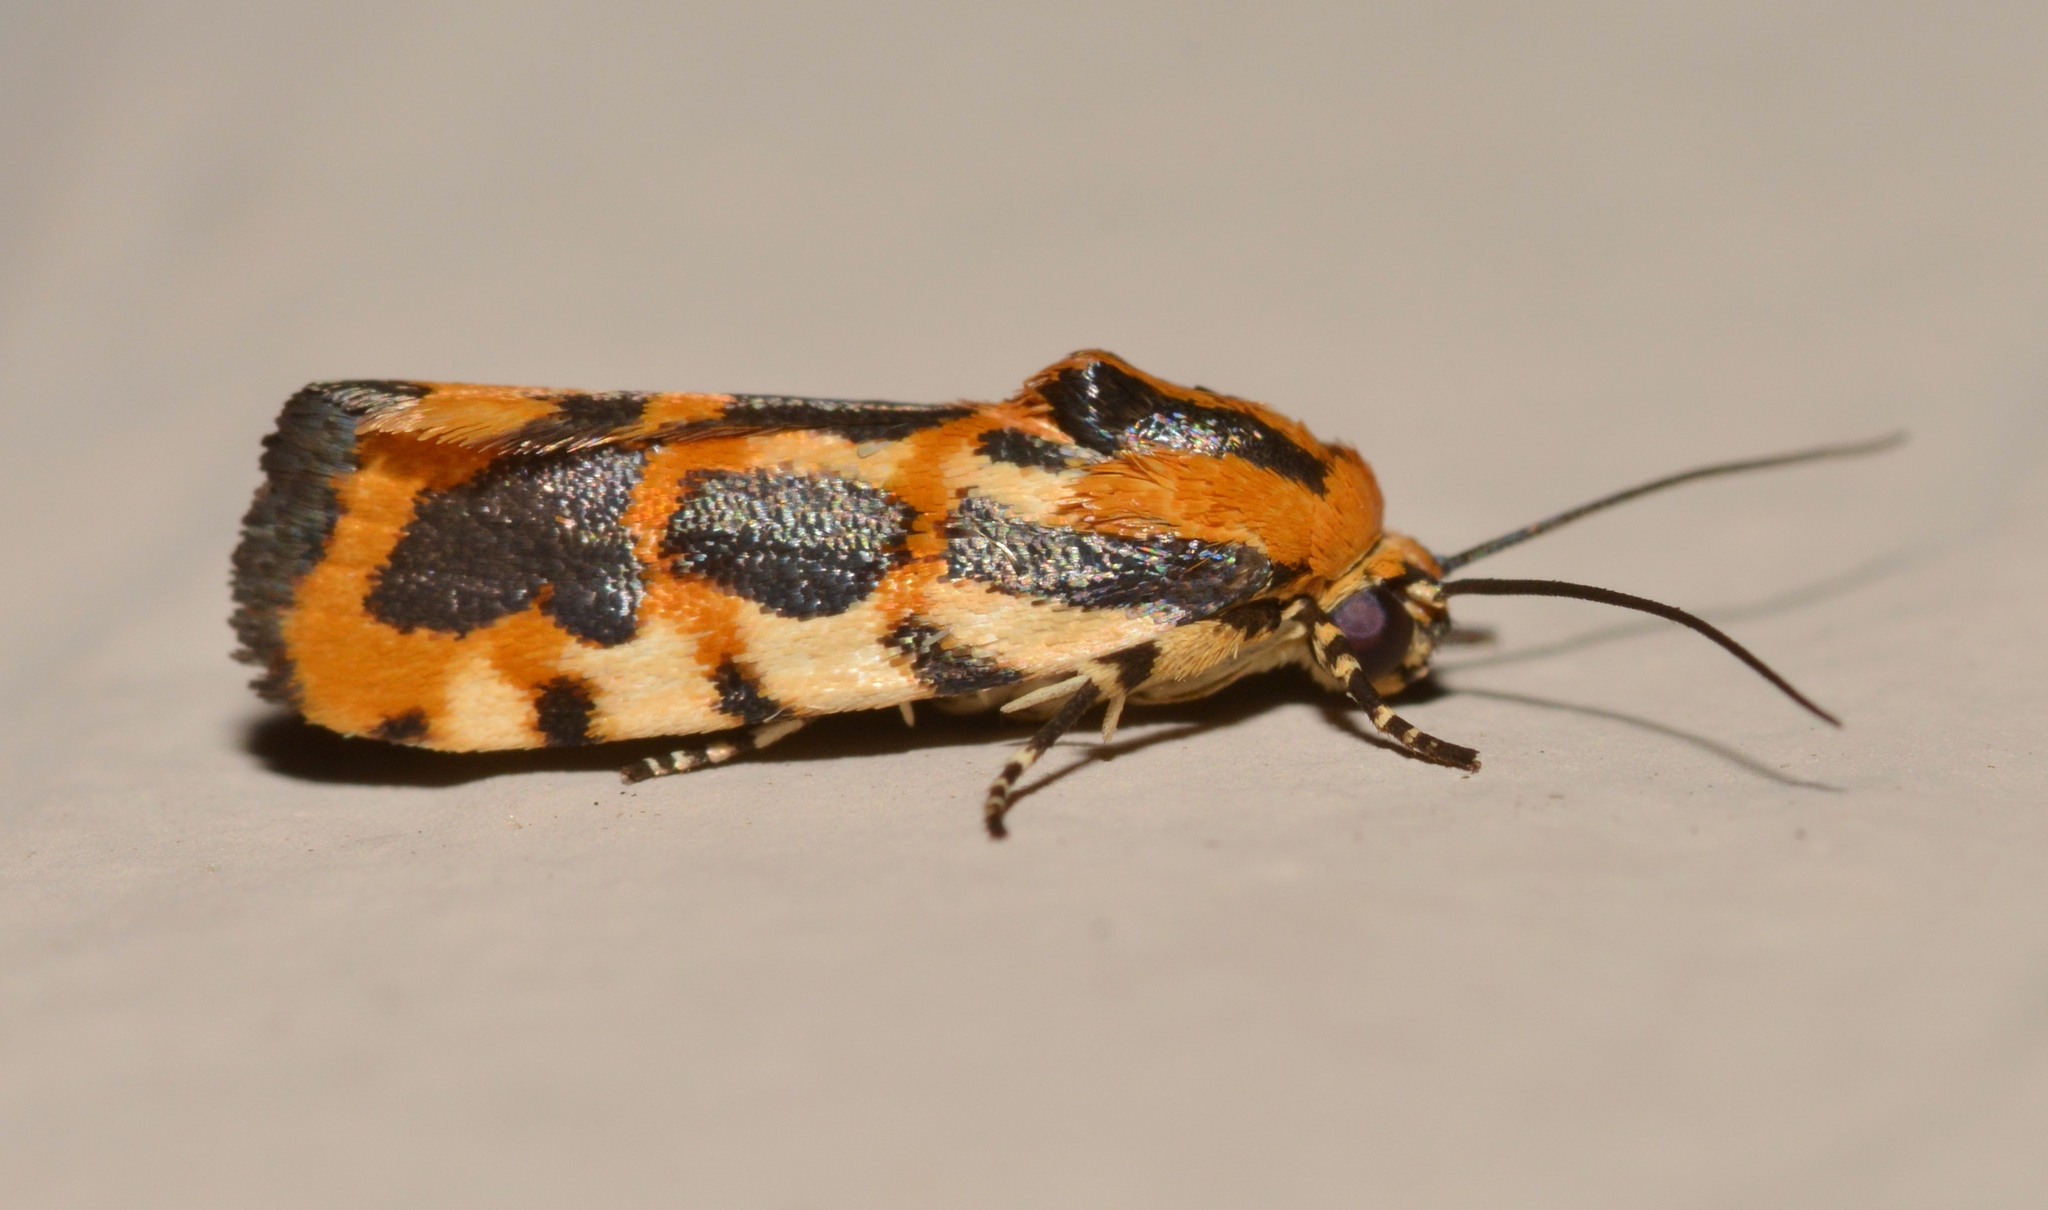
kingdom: Animalia
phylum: Arthropoda
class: Insecta
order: Lepidoptera
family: Noctuidae
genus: Acontia
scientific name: Acontia leo
